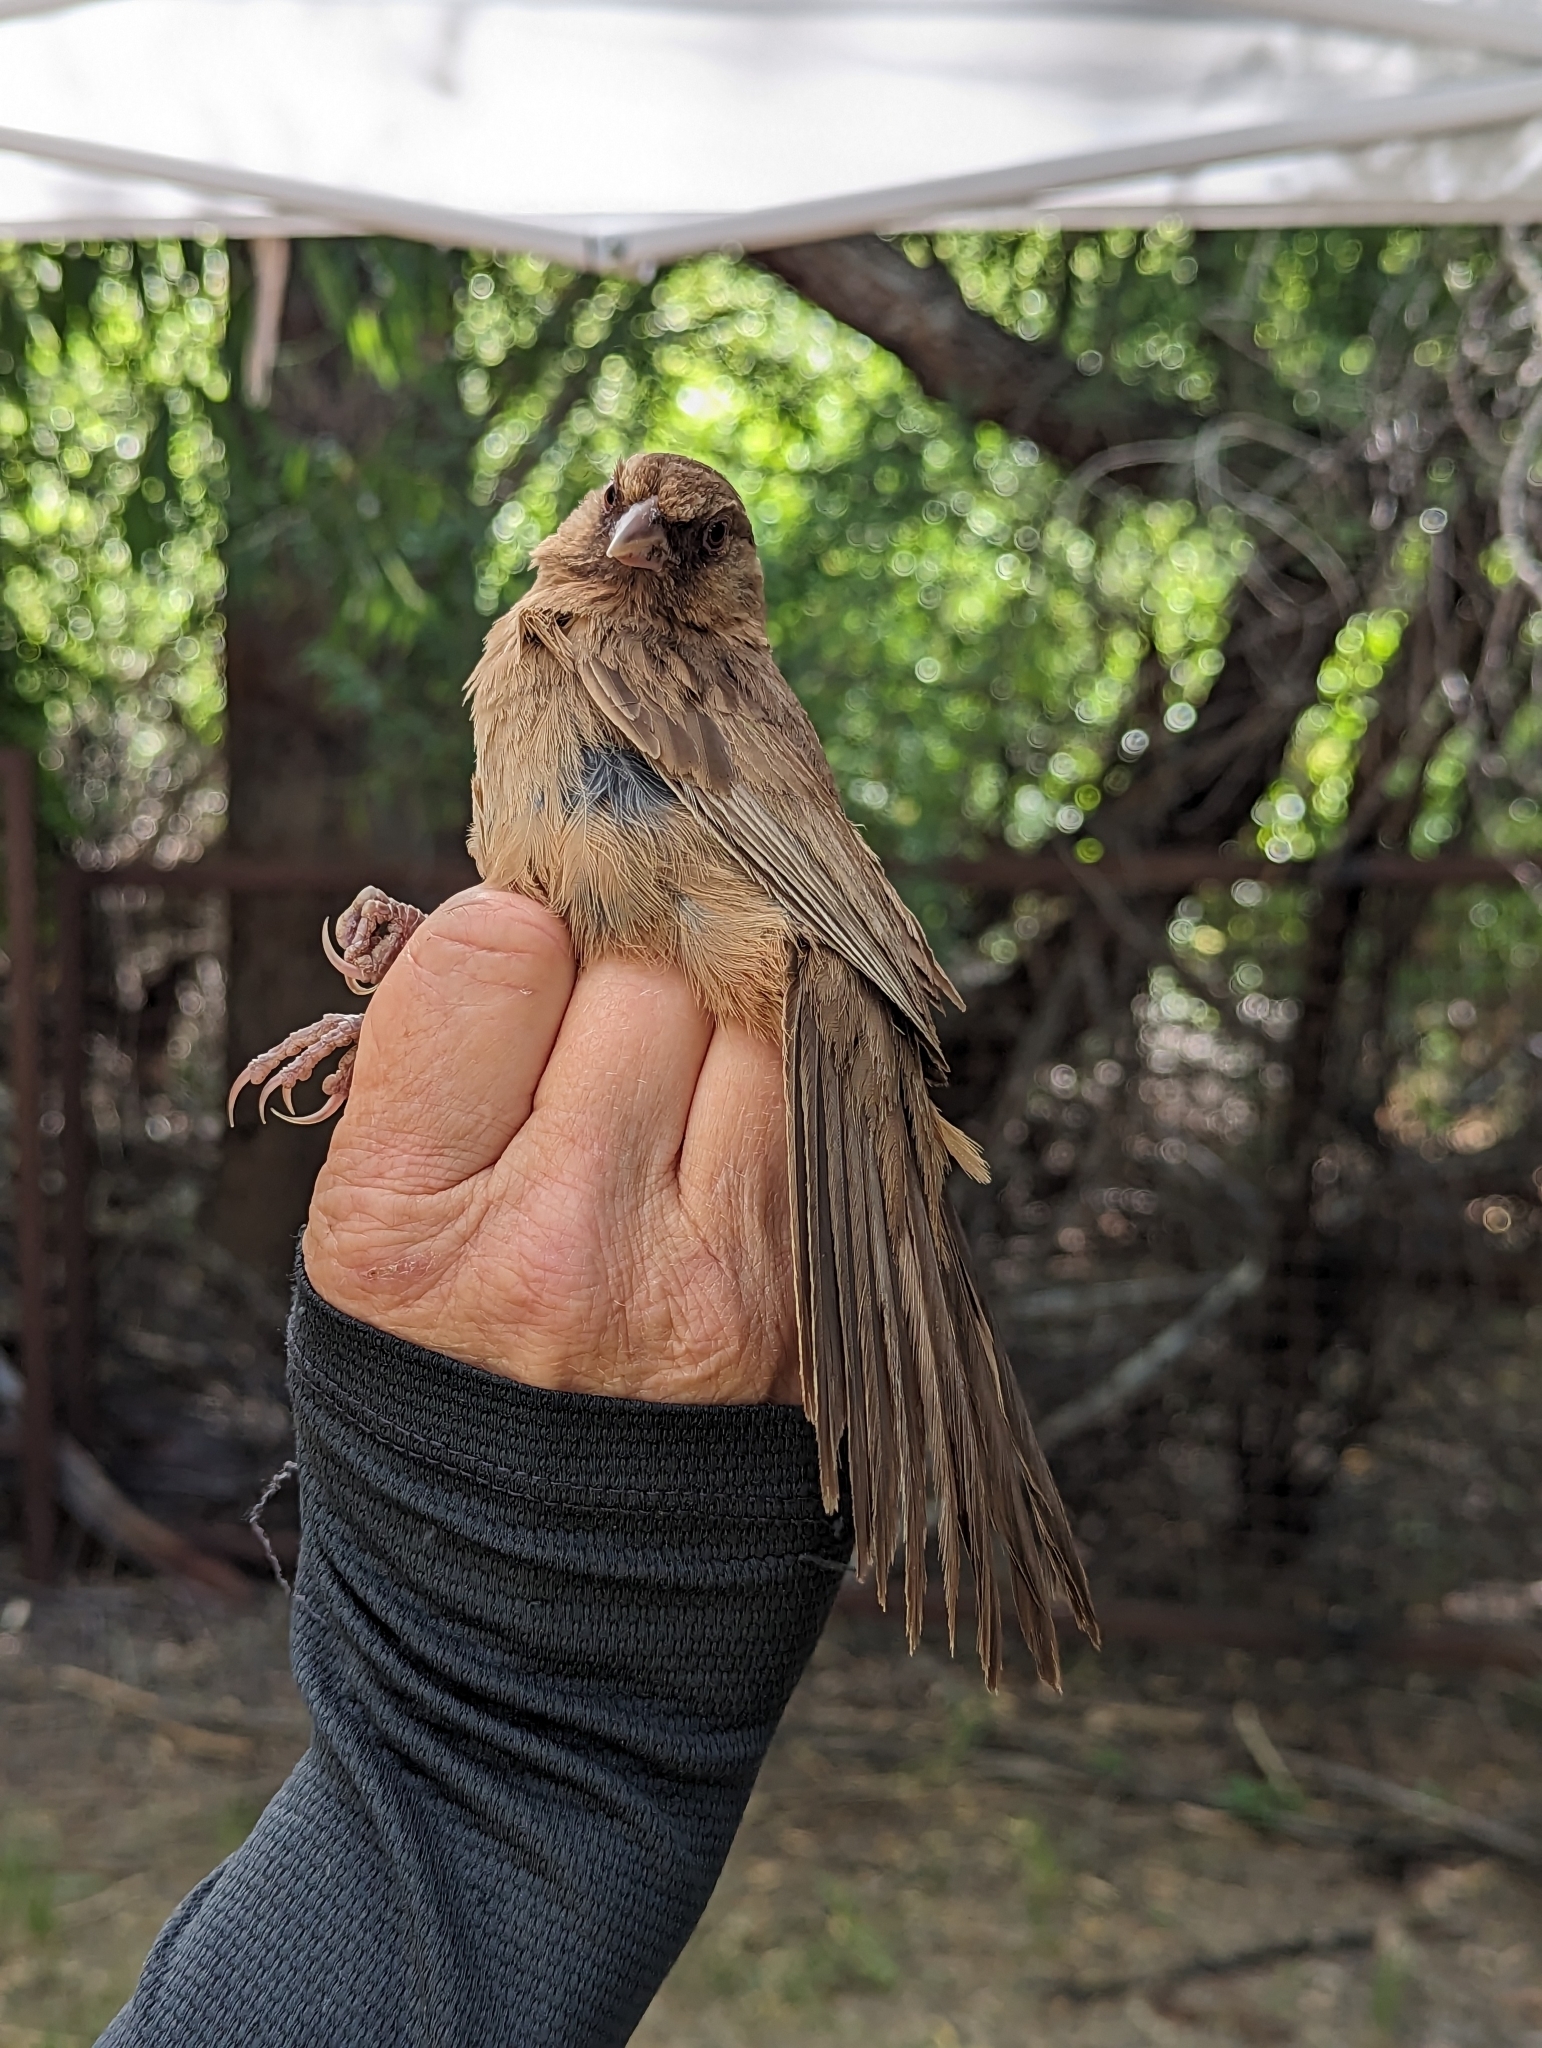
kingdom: Animalia
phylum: Chordata
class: Aves
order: Passeriformes
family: Passerellidae
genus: Melozone
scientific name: Melozone aberti
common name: Abert's towhee
